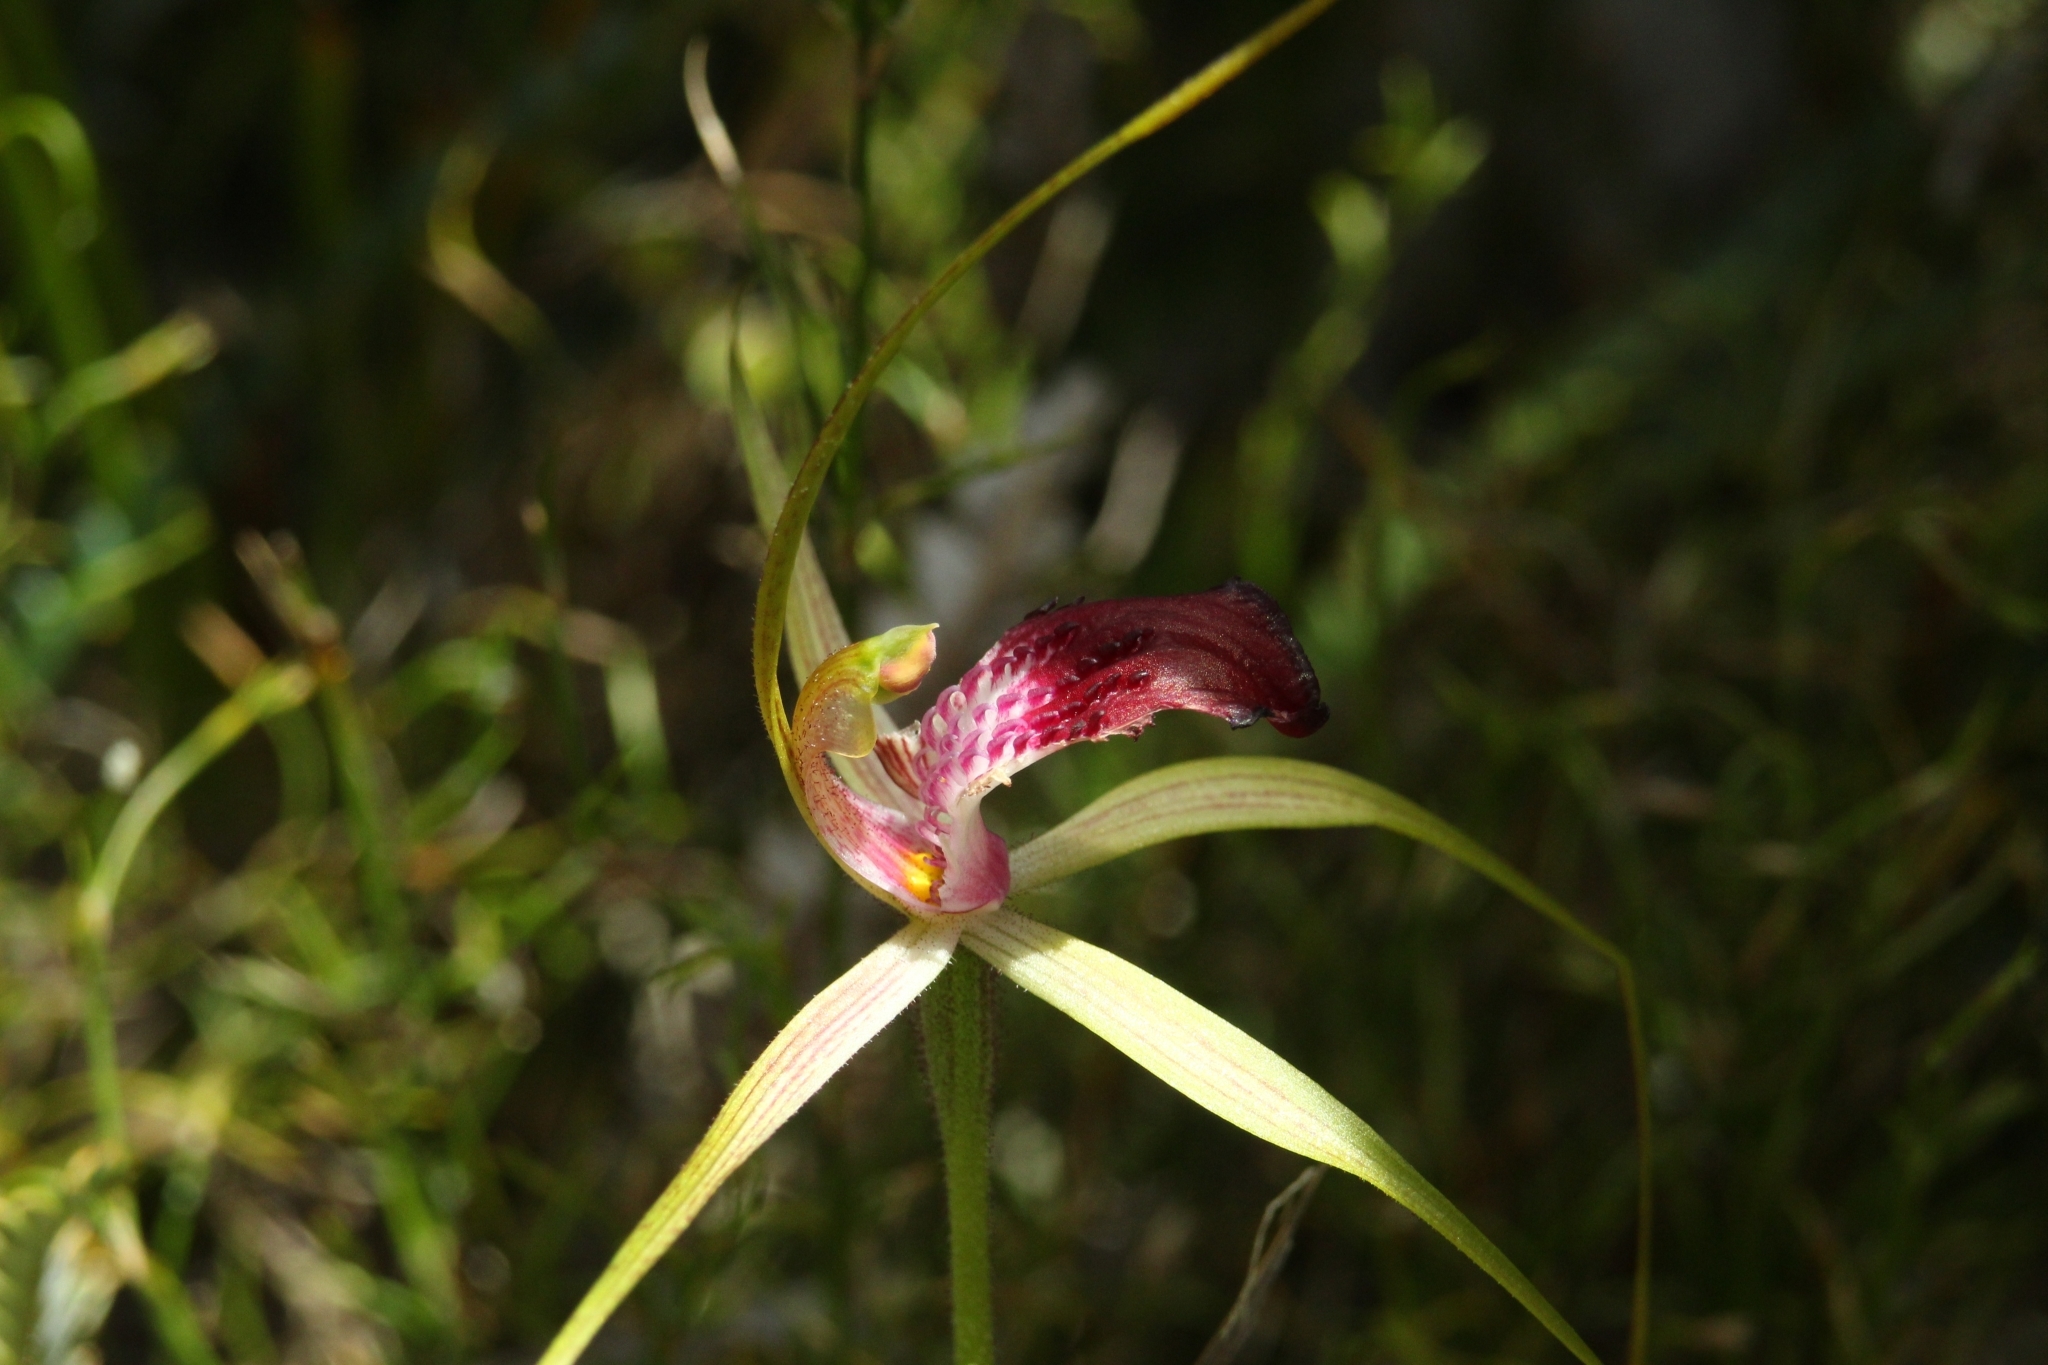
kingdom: Plantae
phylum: Tracheophyta
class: Liliopsida
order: Asparagales
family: Orchidaceae
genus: Caladenia
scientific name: Caladenia ambusta
